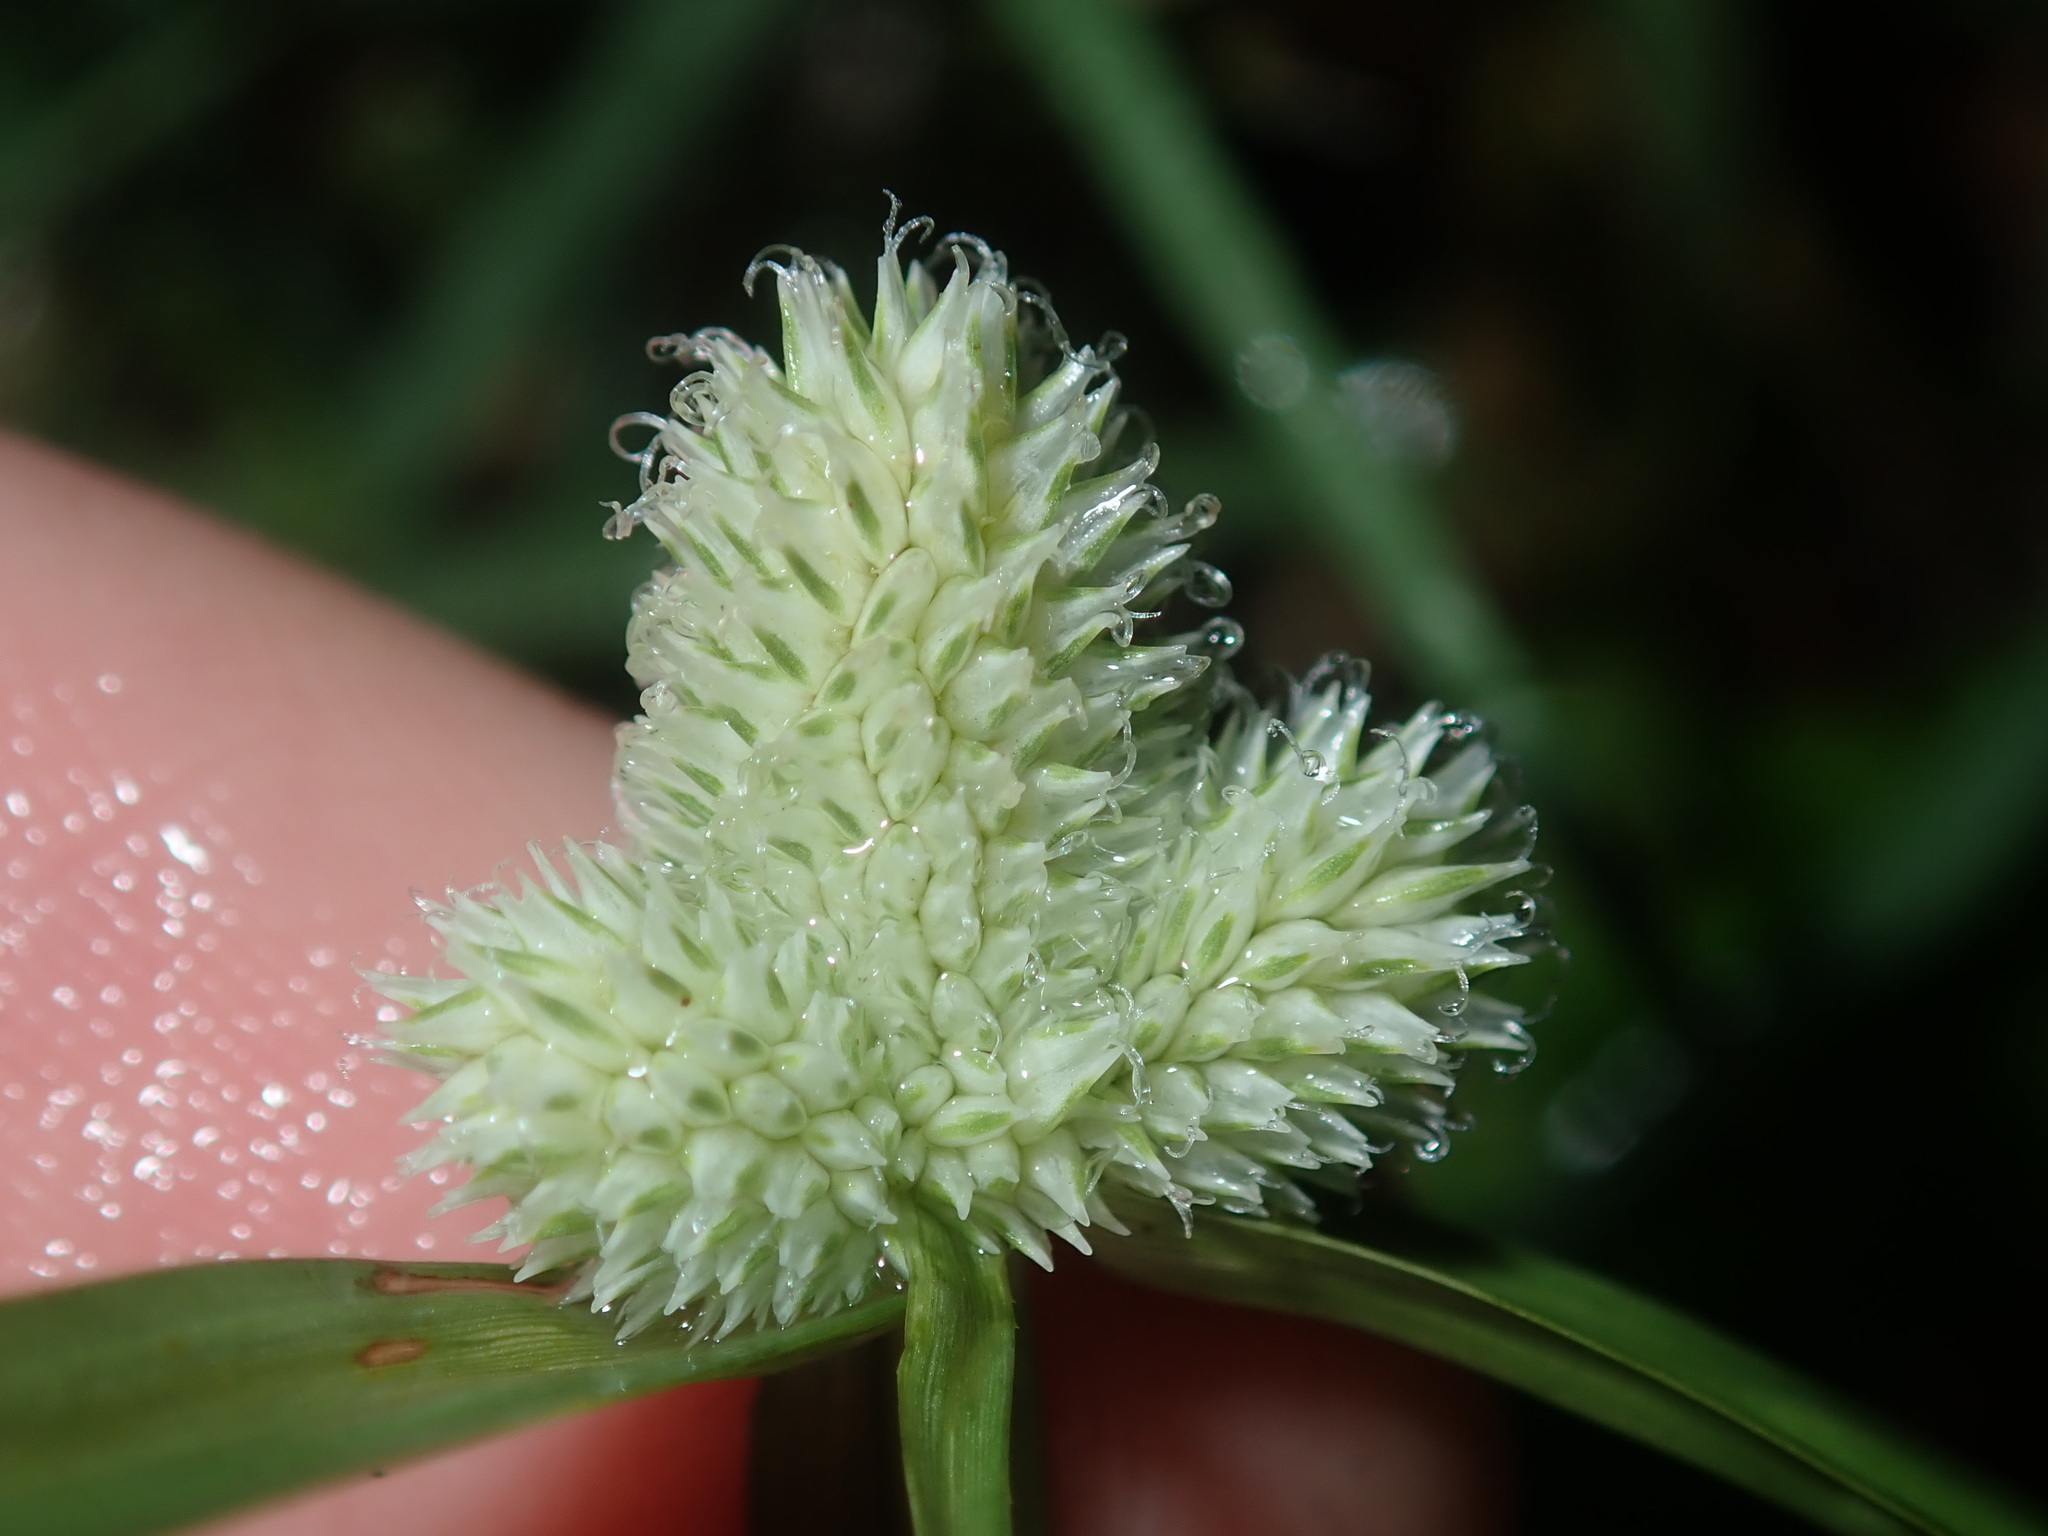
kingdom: Plantae
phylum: Tracheophyta
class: Liliopsida
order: Poales
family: Cyperaceae
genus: Cyperus
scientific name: Cyperus sesquiflorus
